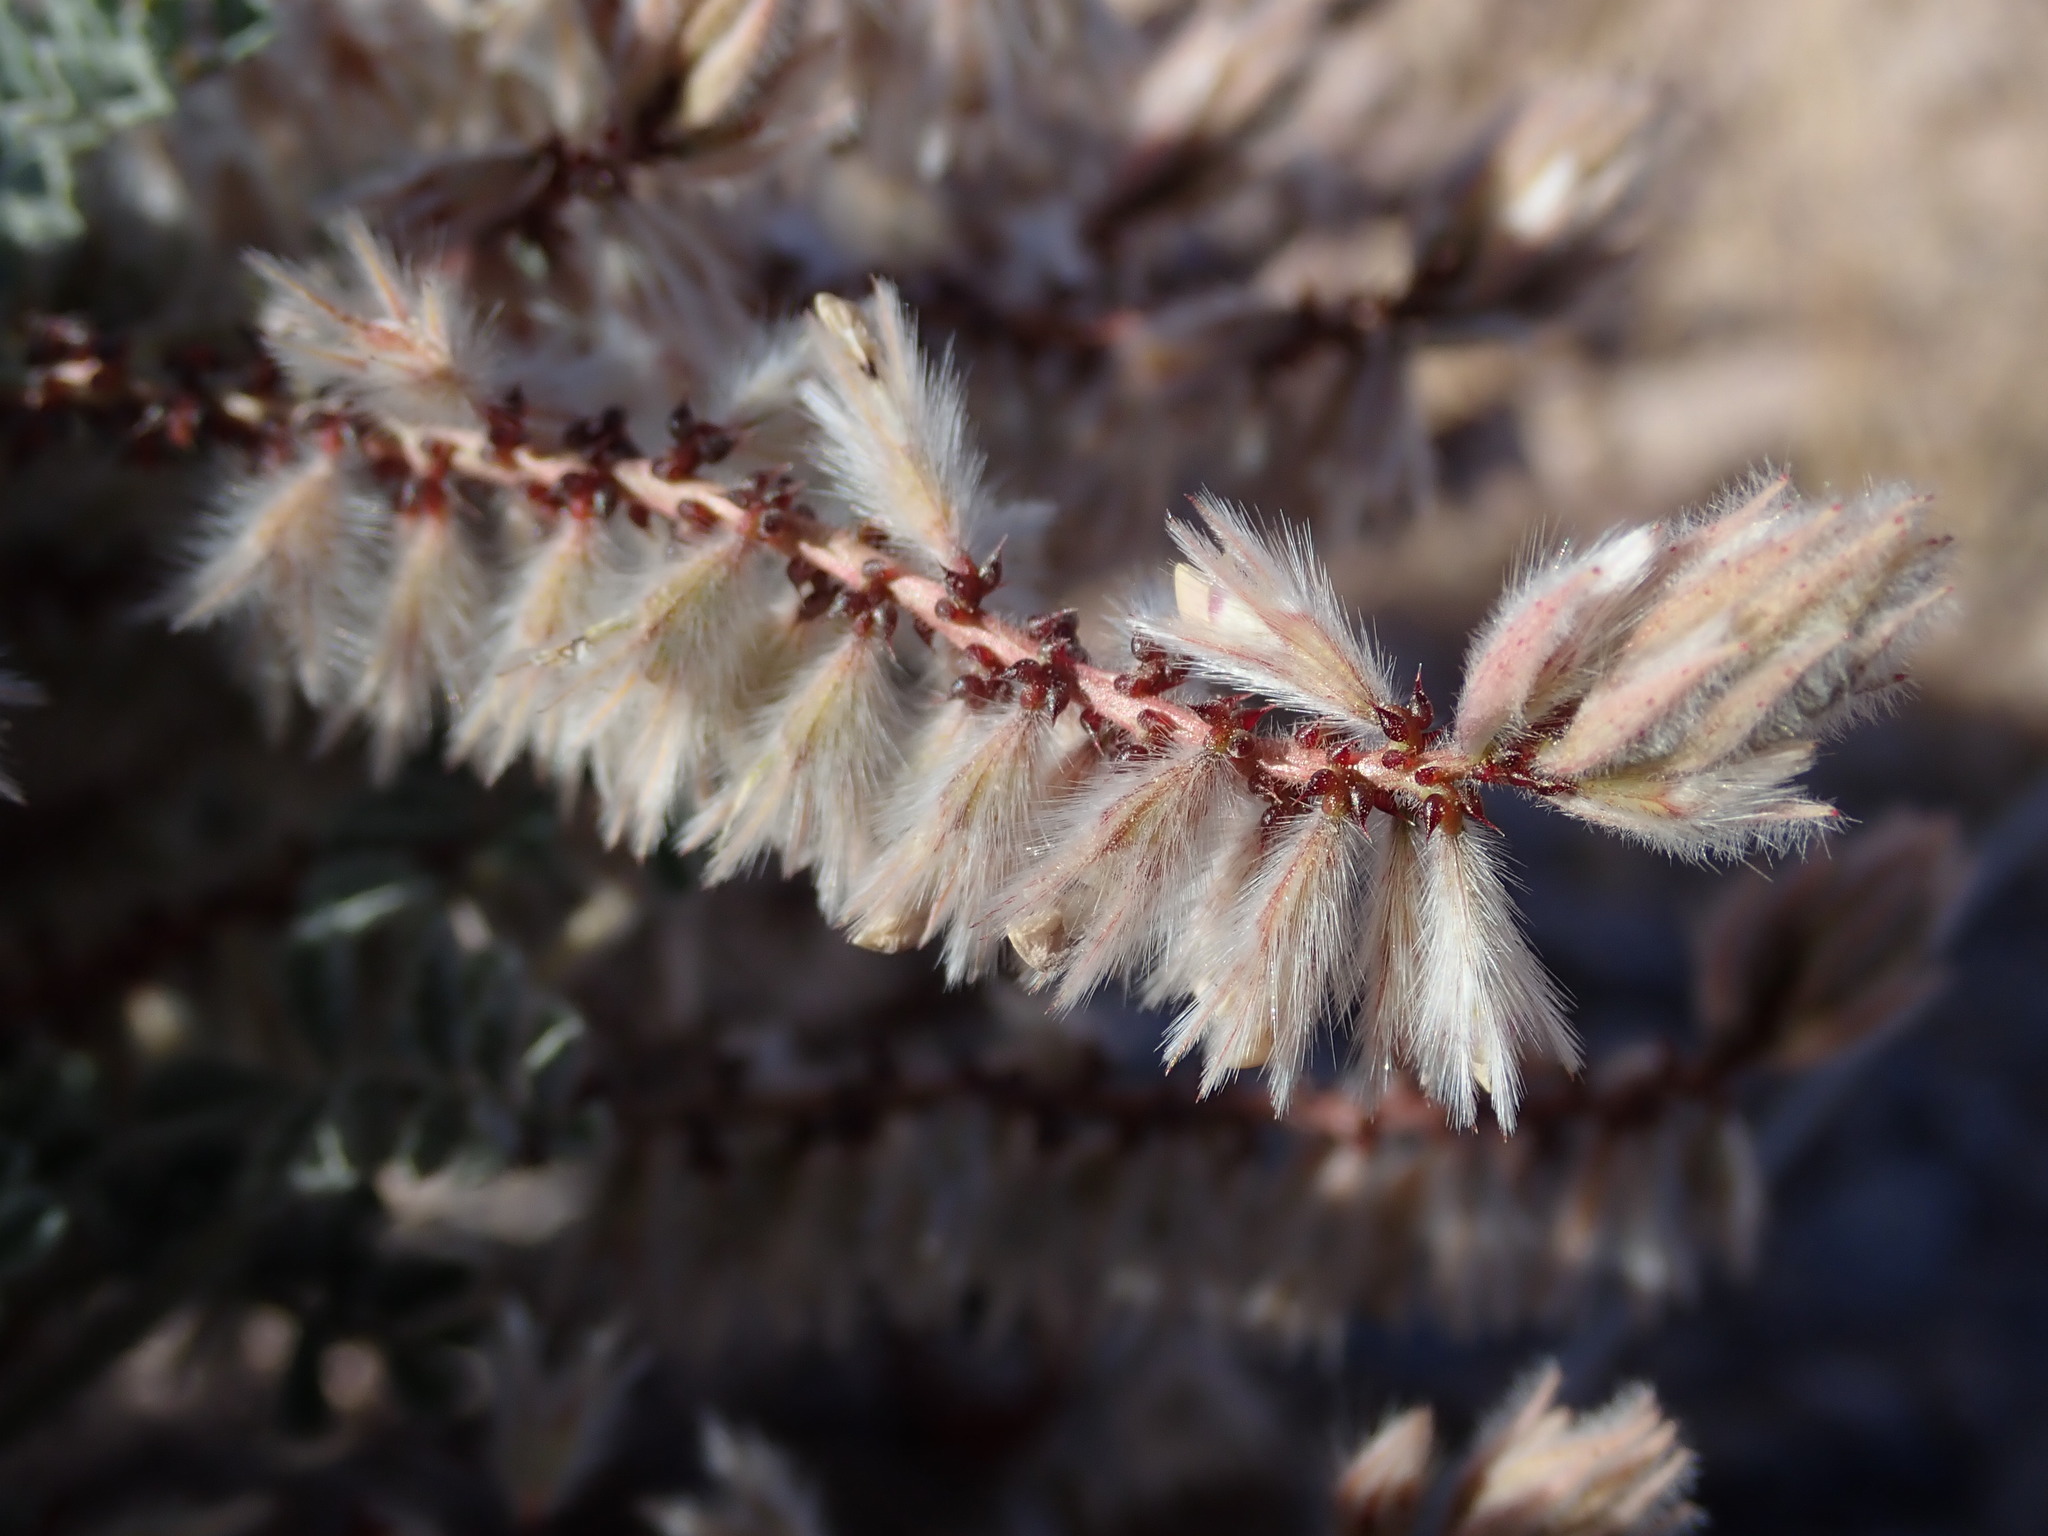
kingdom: Plantae
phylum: Tracheophyta
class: Magnoliopsida
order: Fabales
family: Fabaceae
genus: Dalea
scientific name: Dalea mollissima
